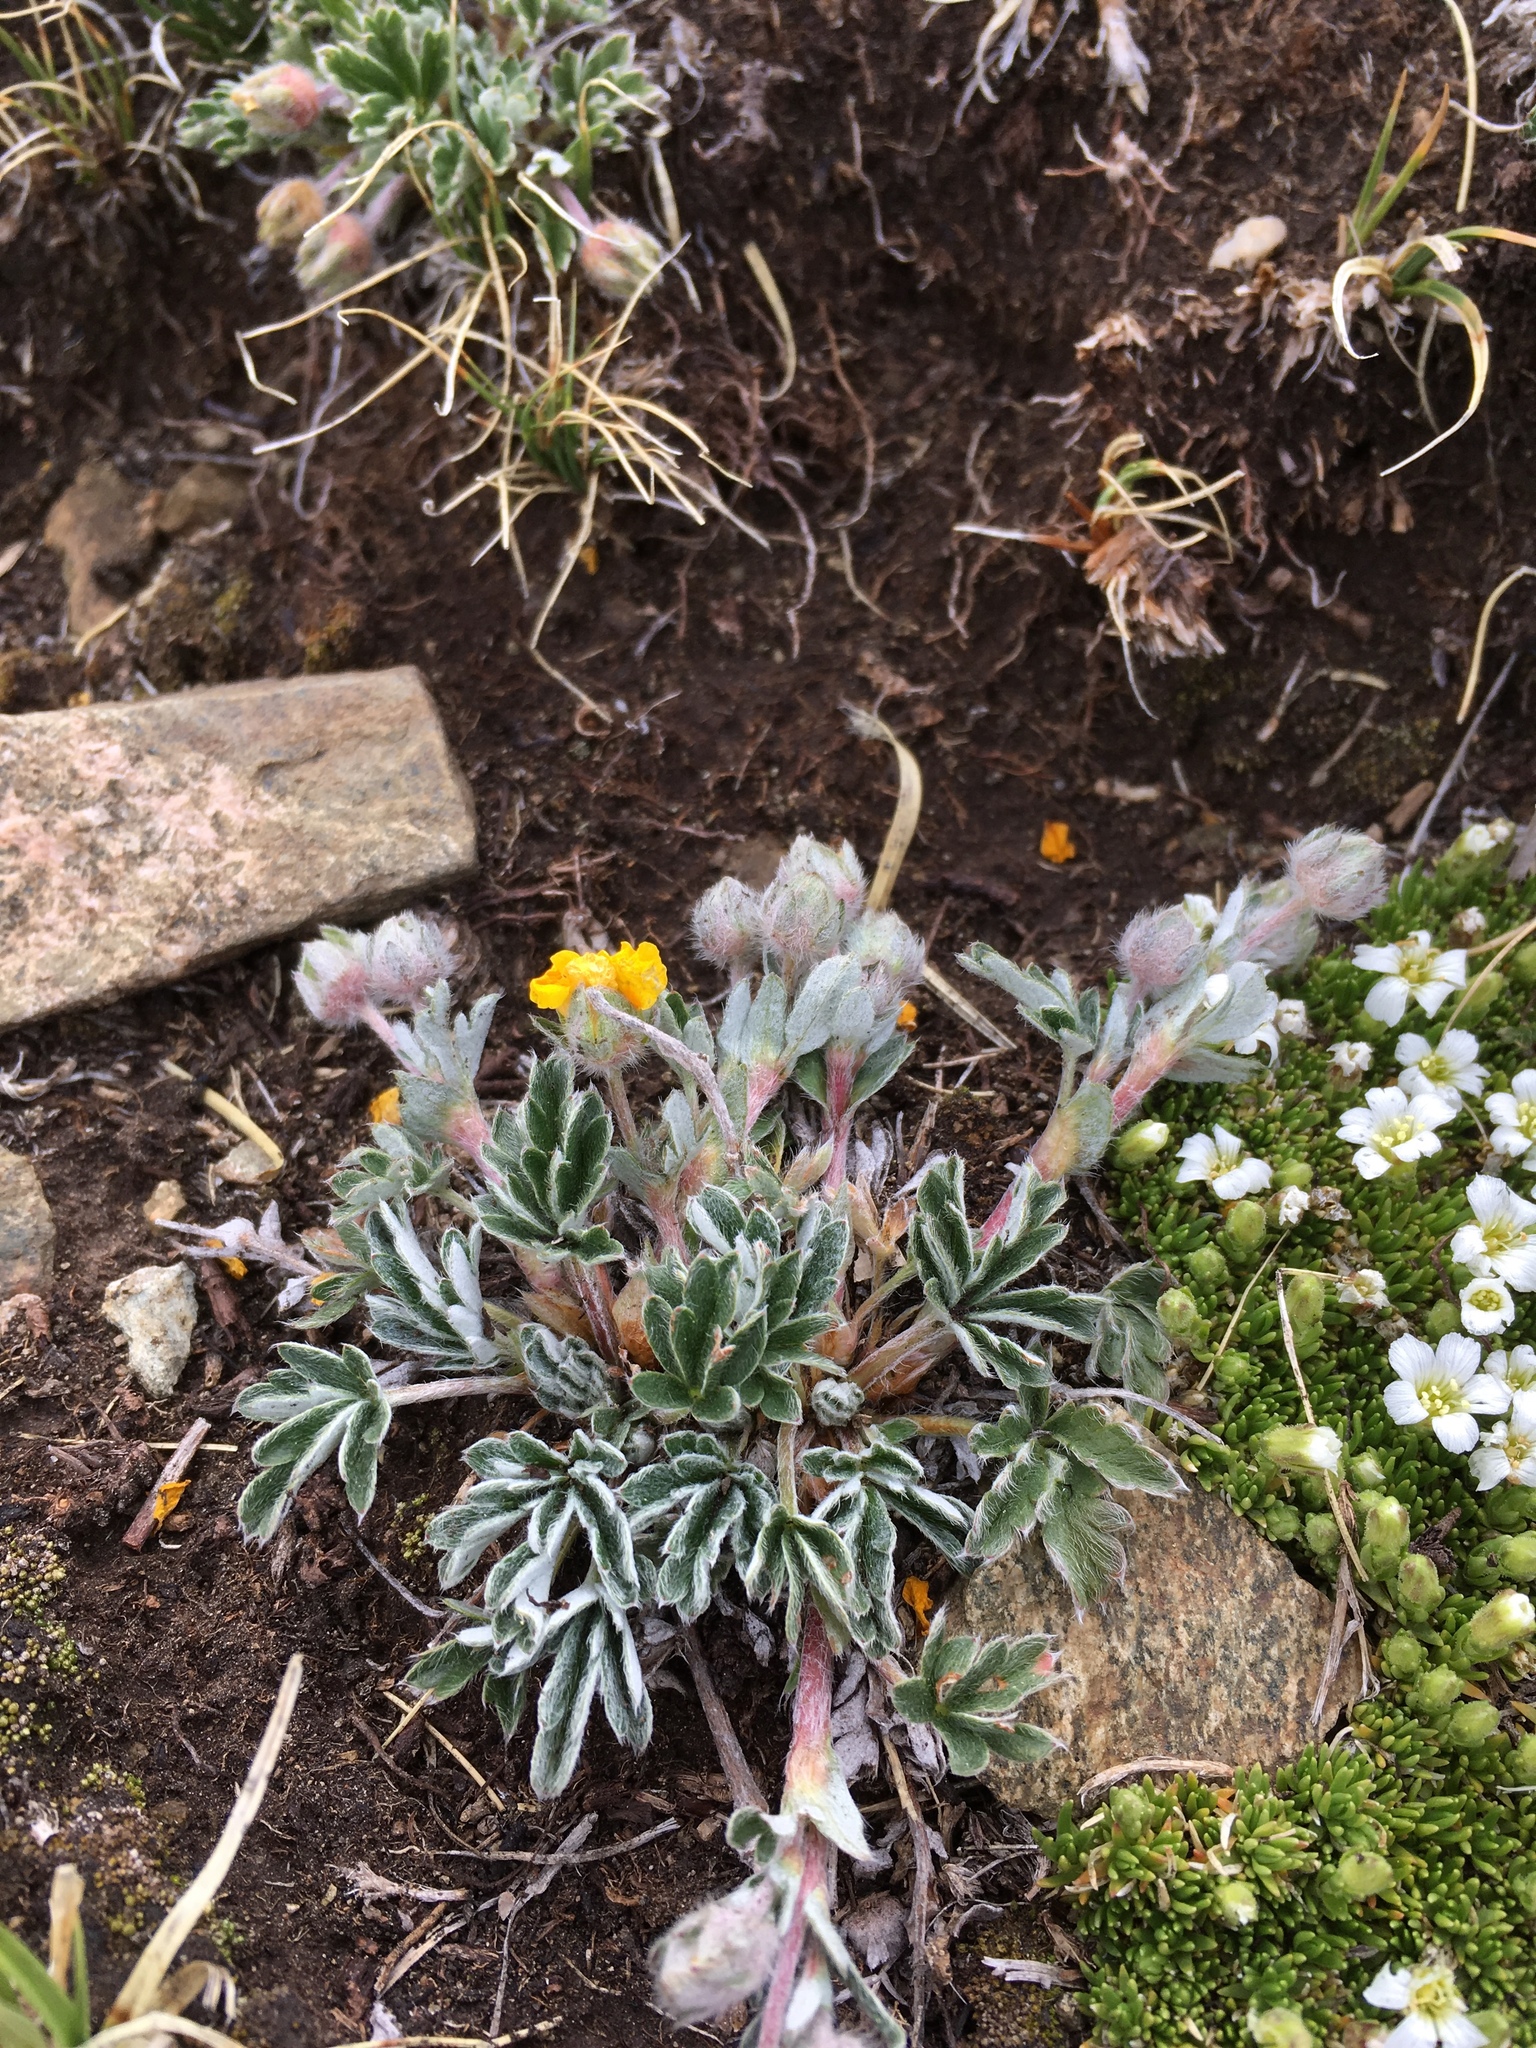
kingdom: Plantae
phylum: Tracheophyta
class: Magnoliopsida
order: Rosales
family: Rosaceae
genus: Potentilla
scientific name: Potentilla concinna
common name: Early cinquefoil
